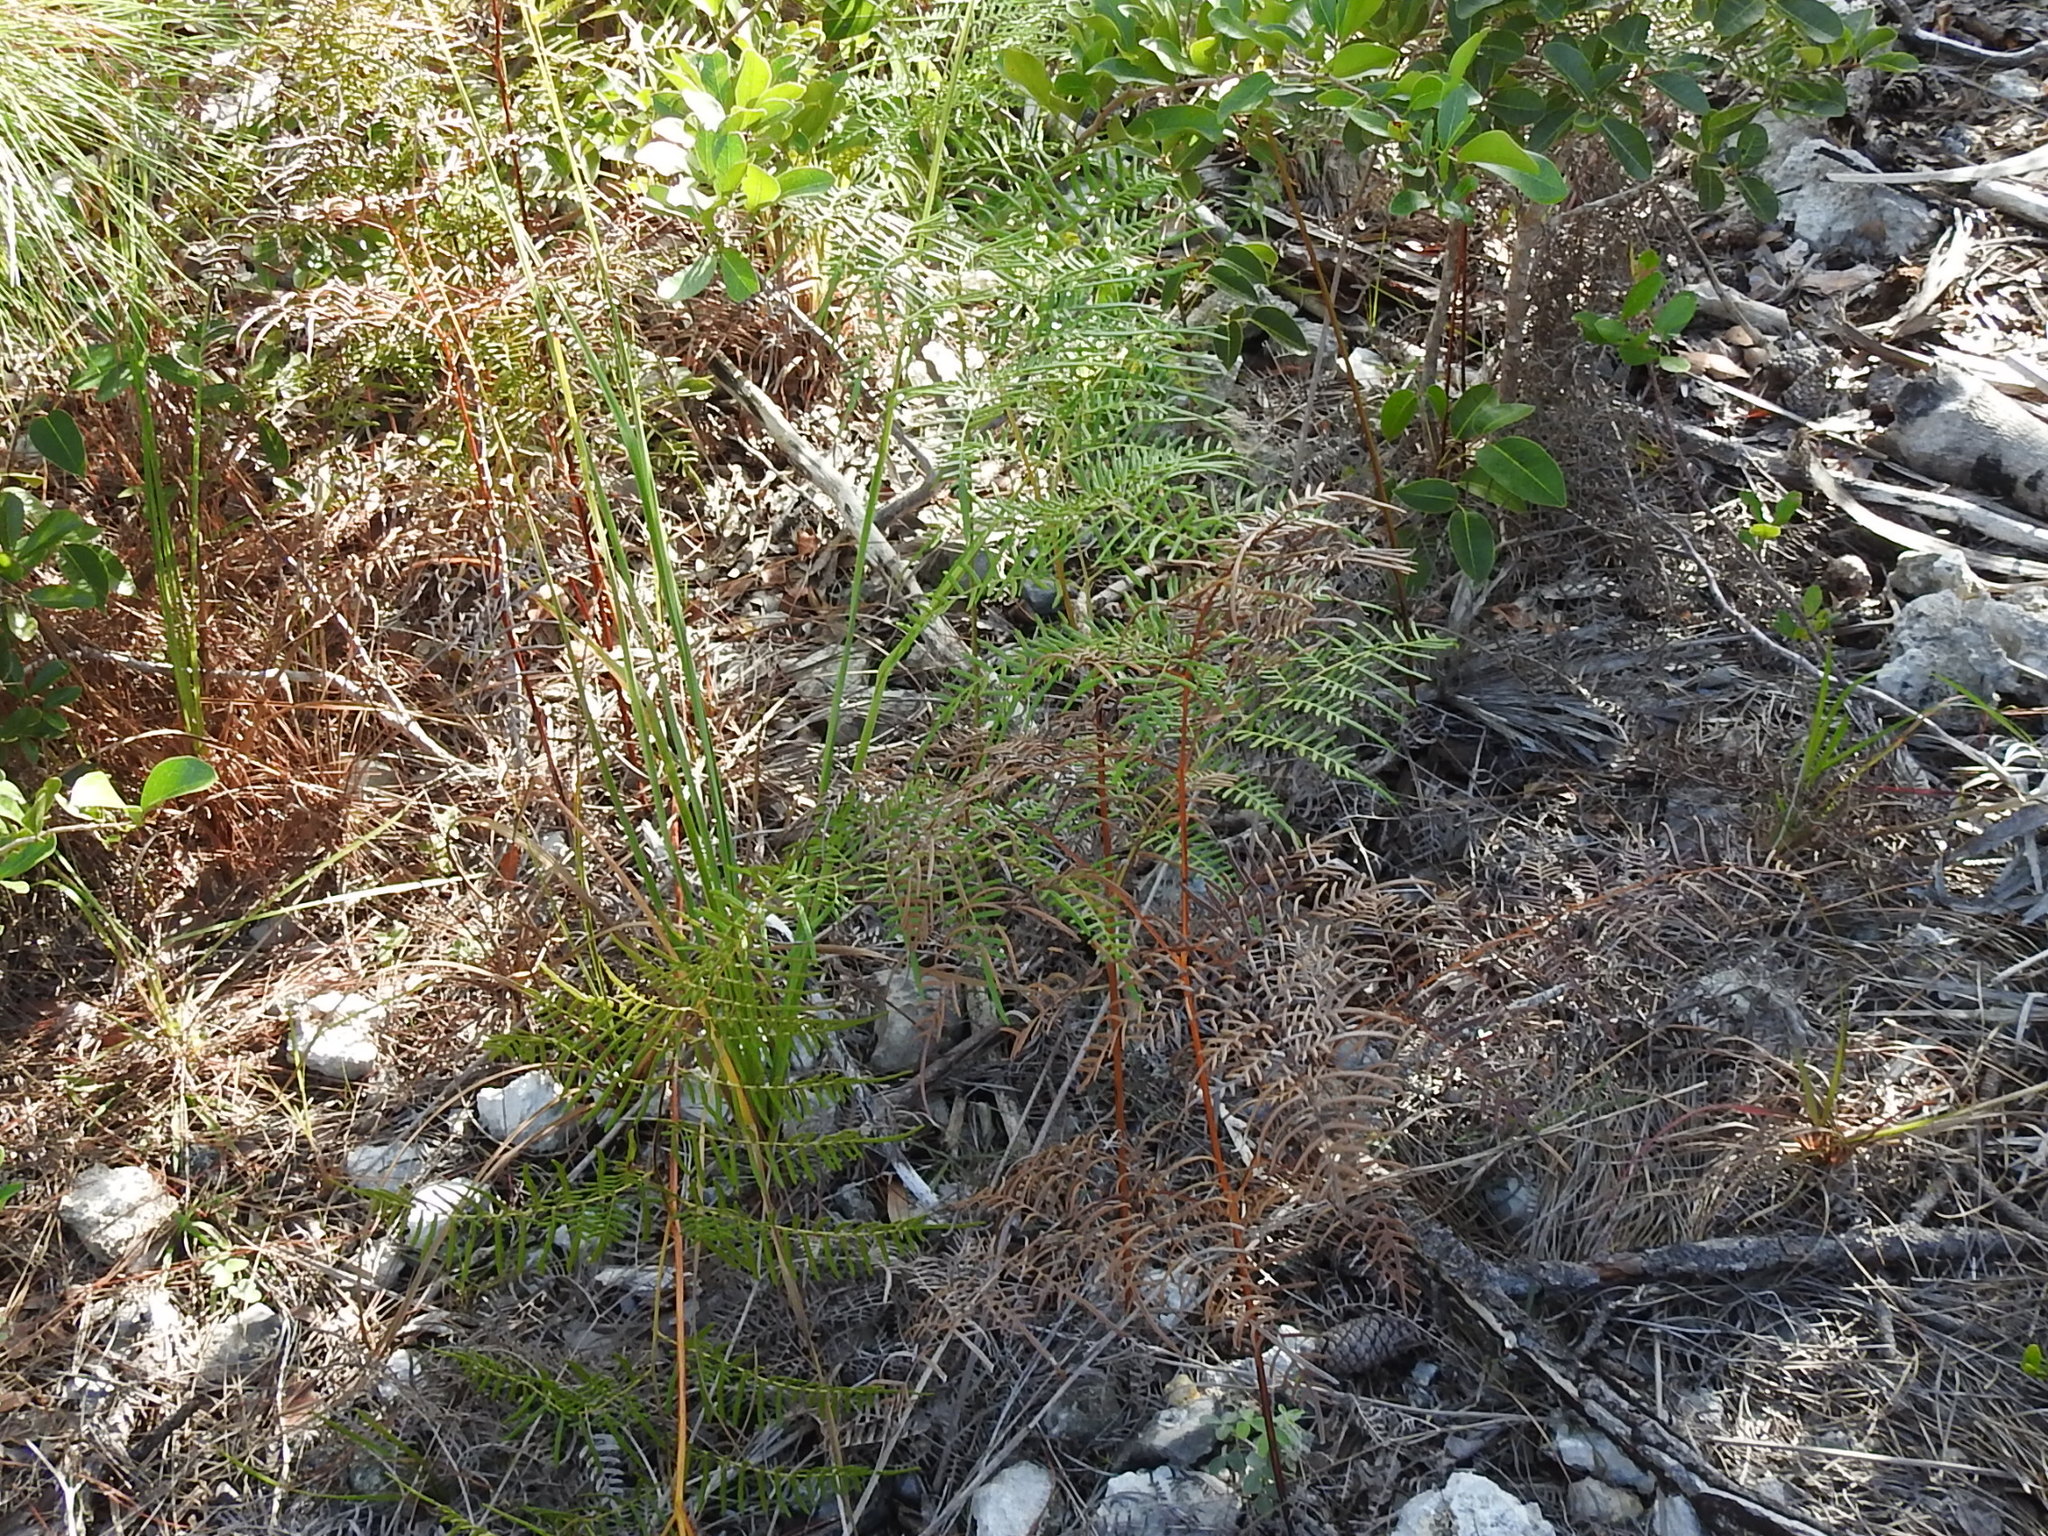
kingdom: Plantae
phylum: Tracheophyta
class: Polypodiopsida
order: Polypodiales
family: Dennstaedtiaceae
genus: Pteridium
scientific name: Pteridium caudatum
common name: Southern bracken fern
